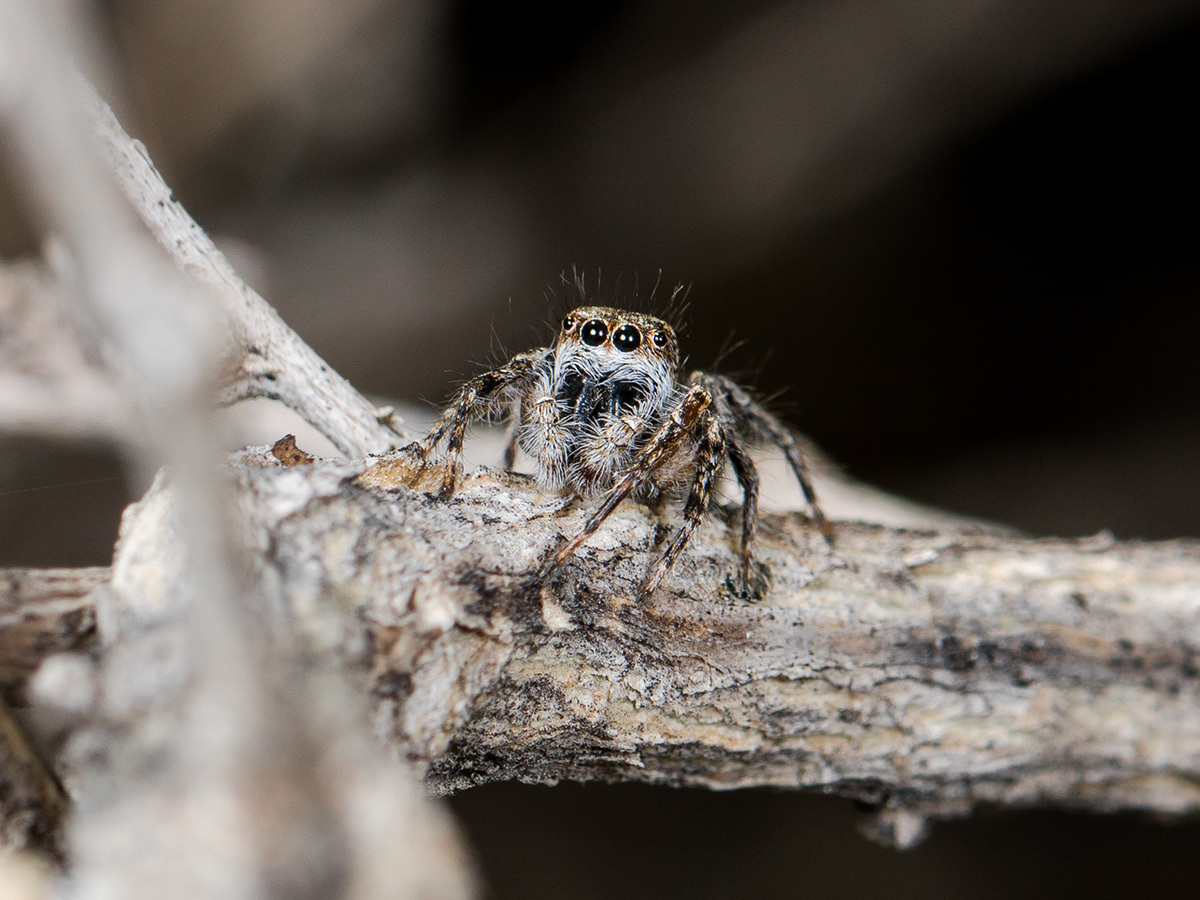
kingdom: Animalia
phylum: Arthropoda
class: Arachnida
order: Araneae
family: Salticidae
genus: Mogrus
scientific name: Mogrus larisae
